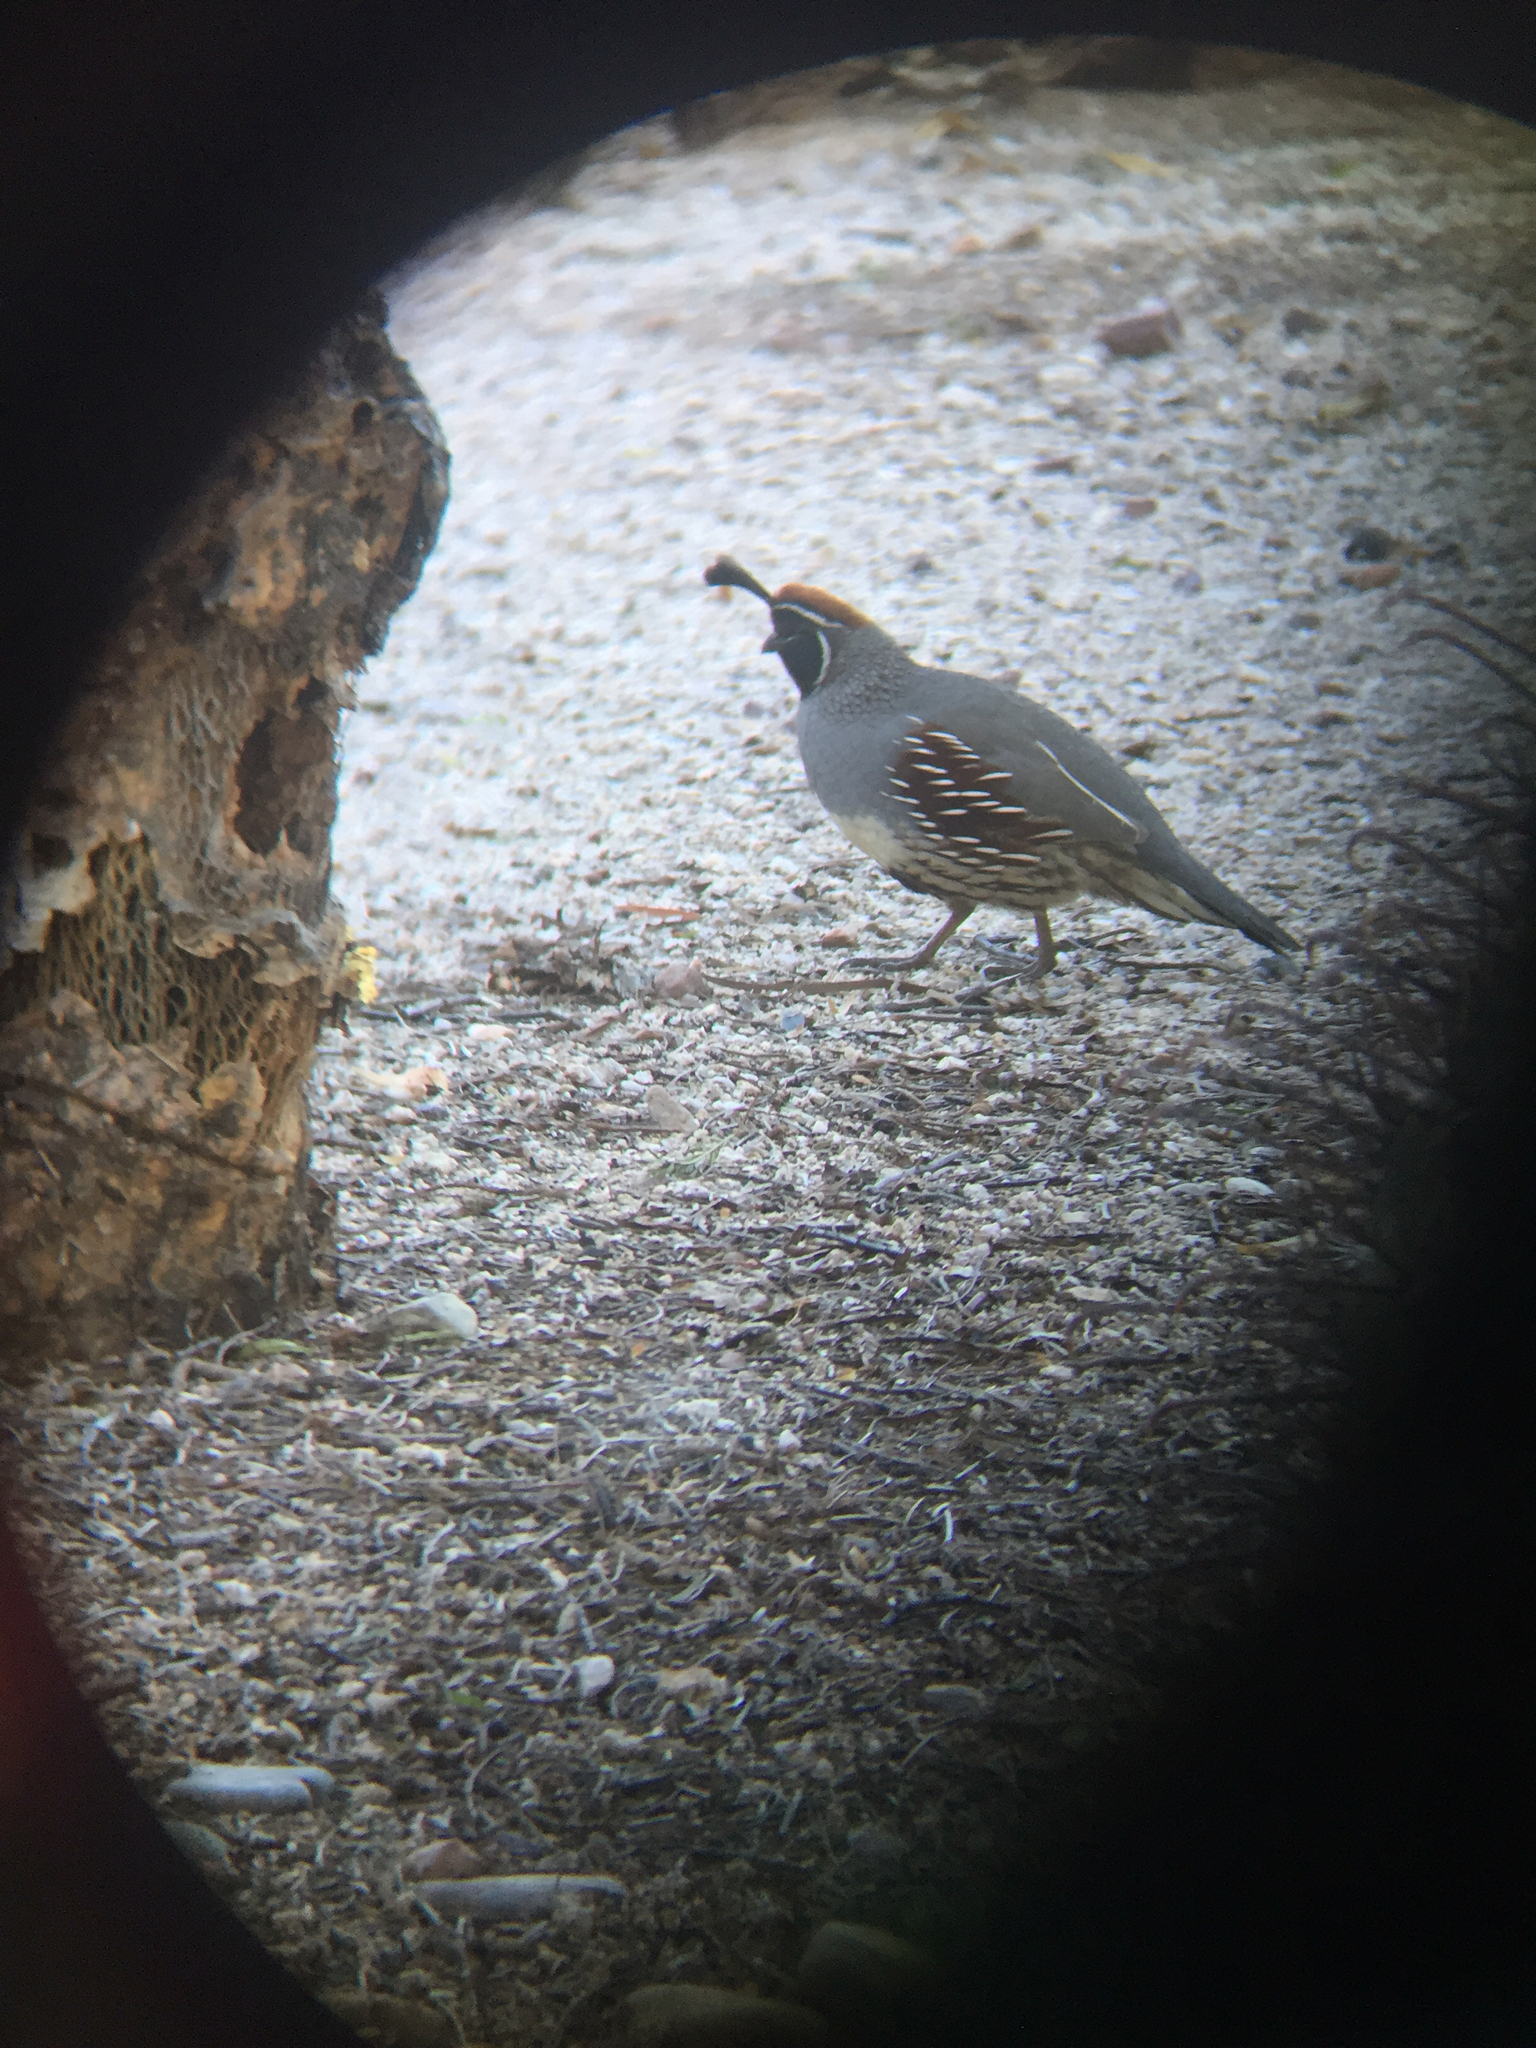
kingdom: Animalia
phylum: Chordata
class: Aves
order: Galliformes
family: Odontophoridae
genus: Callipepla
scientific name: Callipepla gambelii
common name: Gambel's quail
